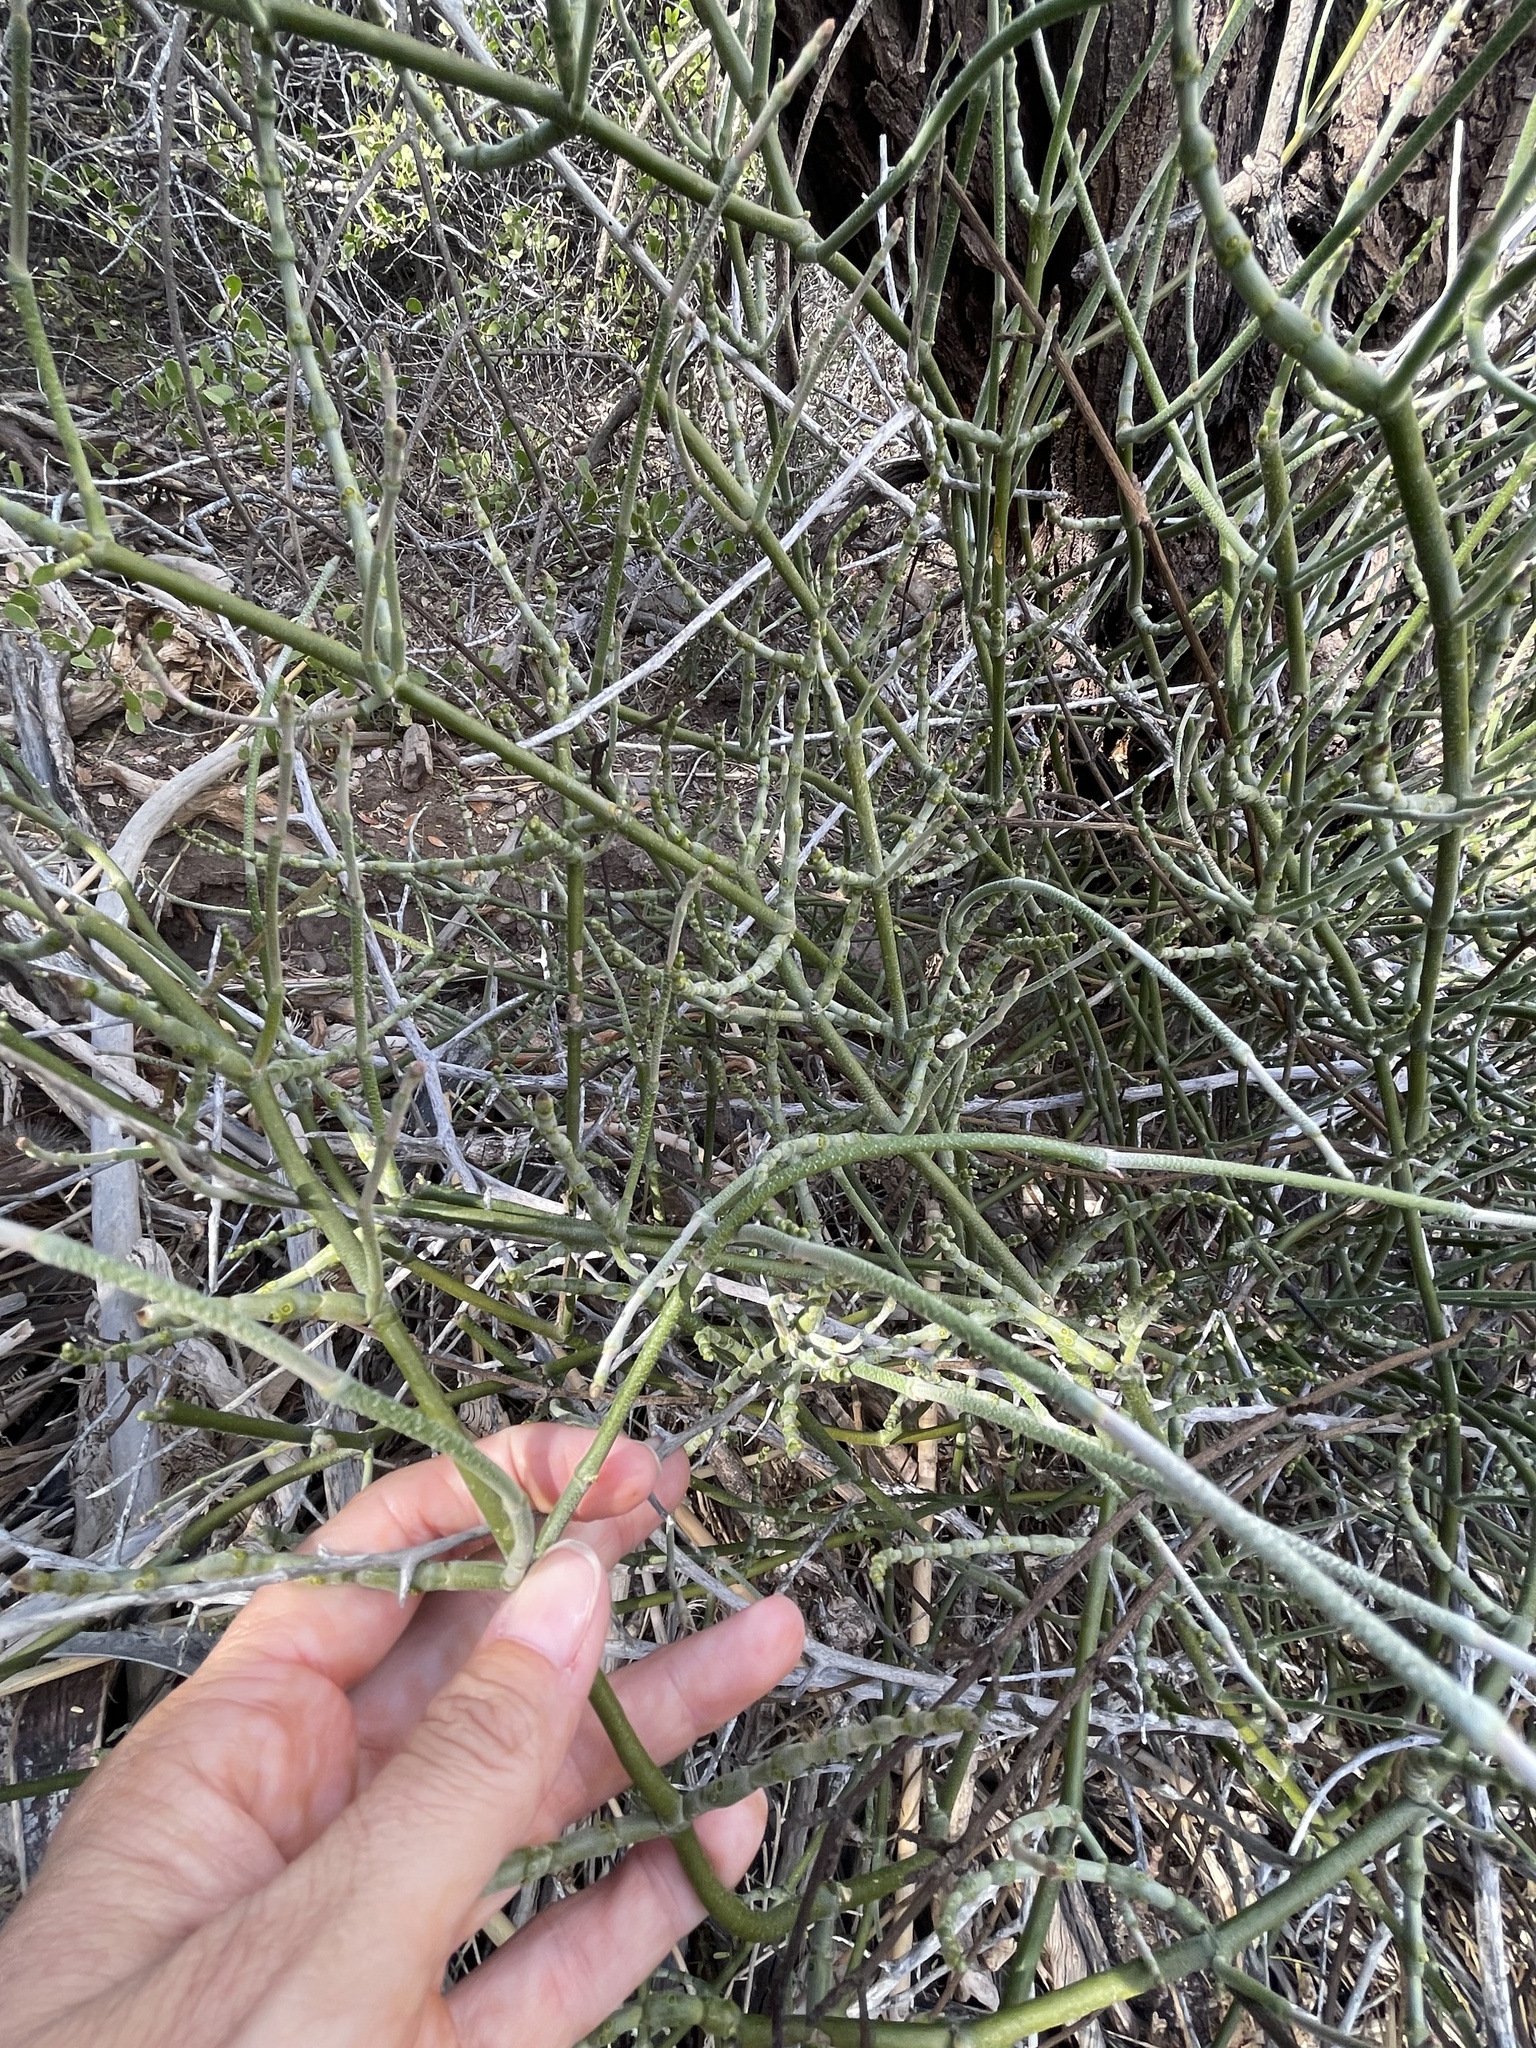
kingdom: Plantae
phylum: Tracheophyta
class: Magnoliopsida
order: Santalales
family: Viscaceae
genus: Phoradendron
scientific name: Phoradendron californicum
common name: Acacia mistletoe
